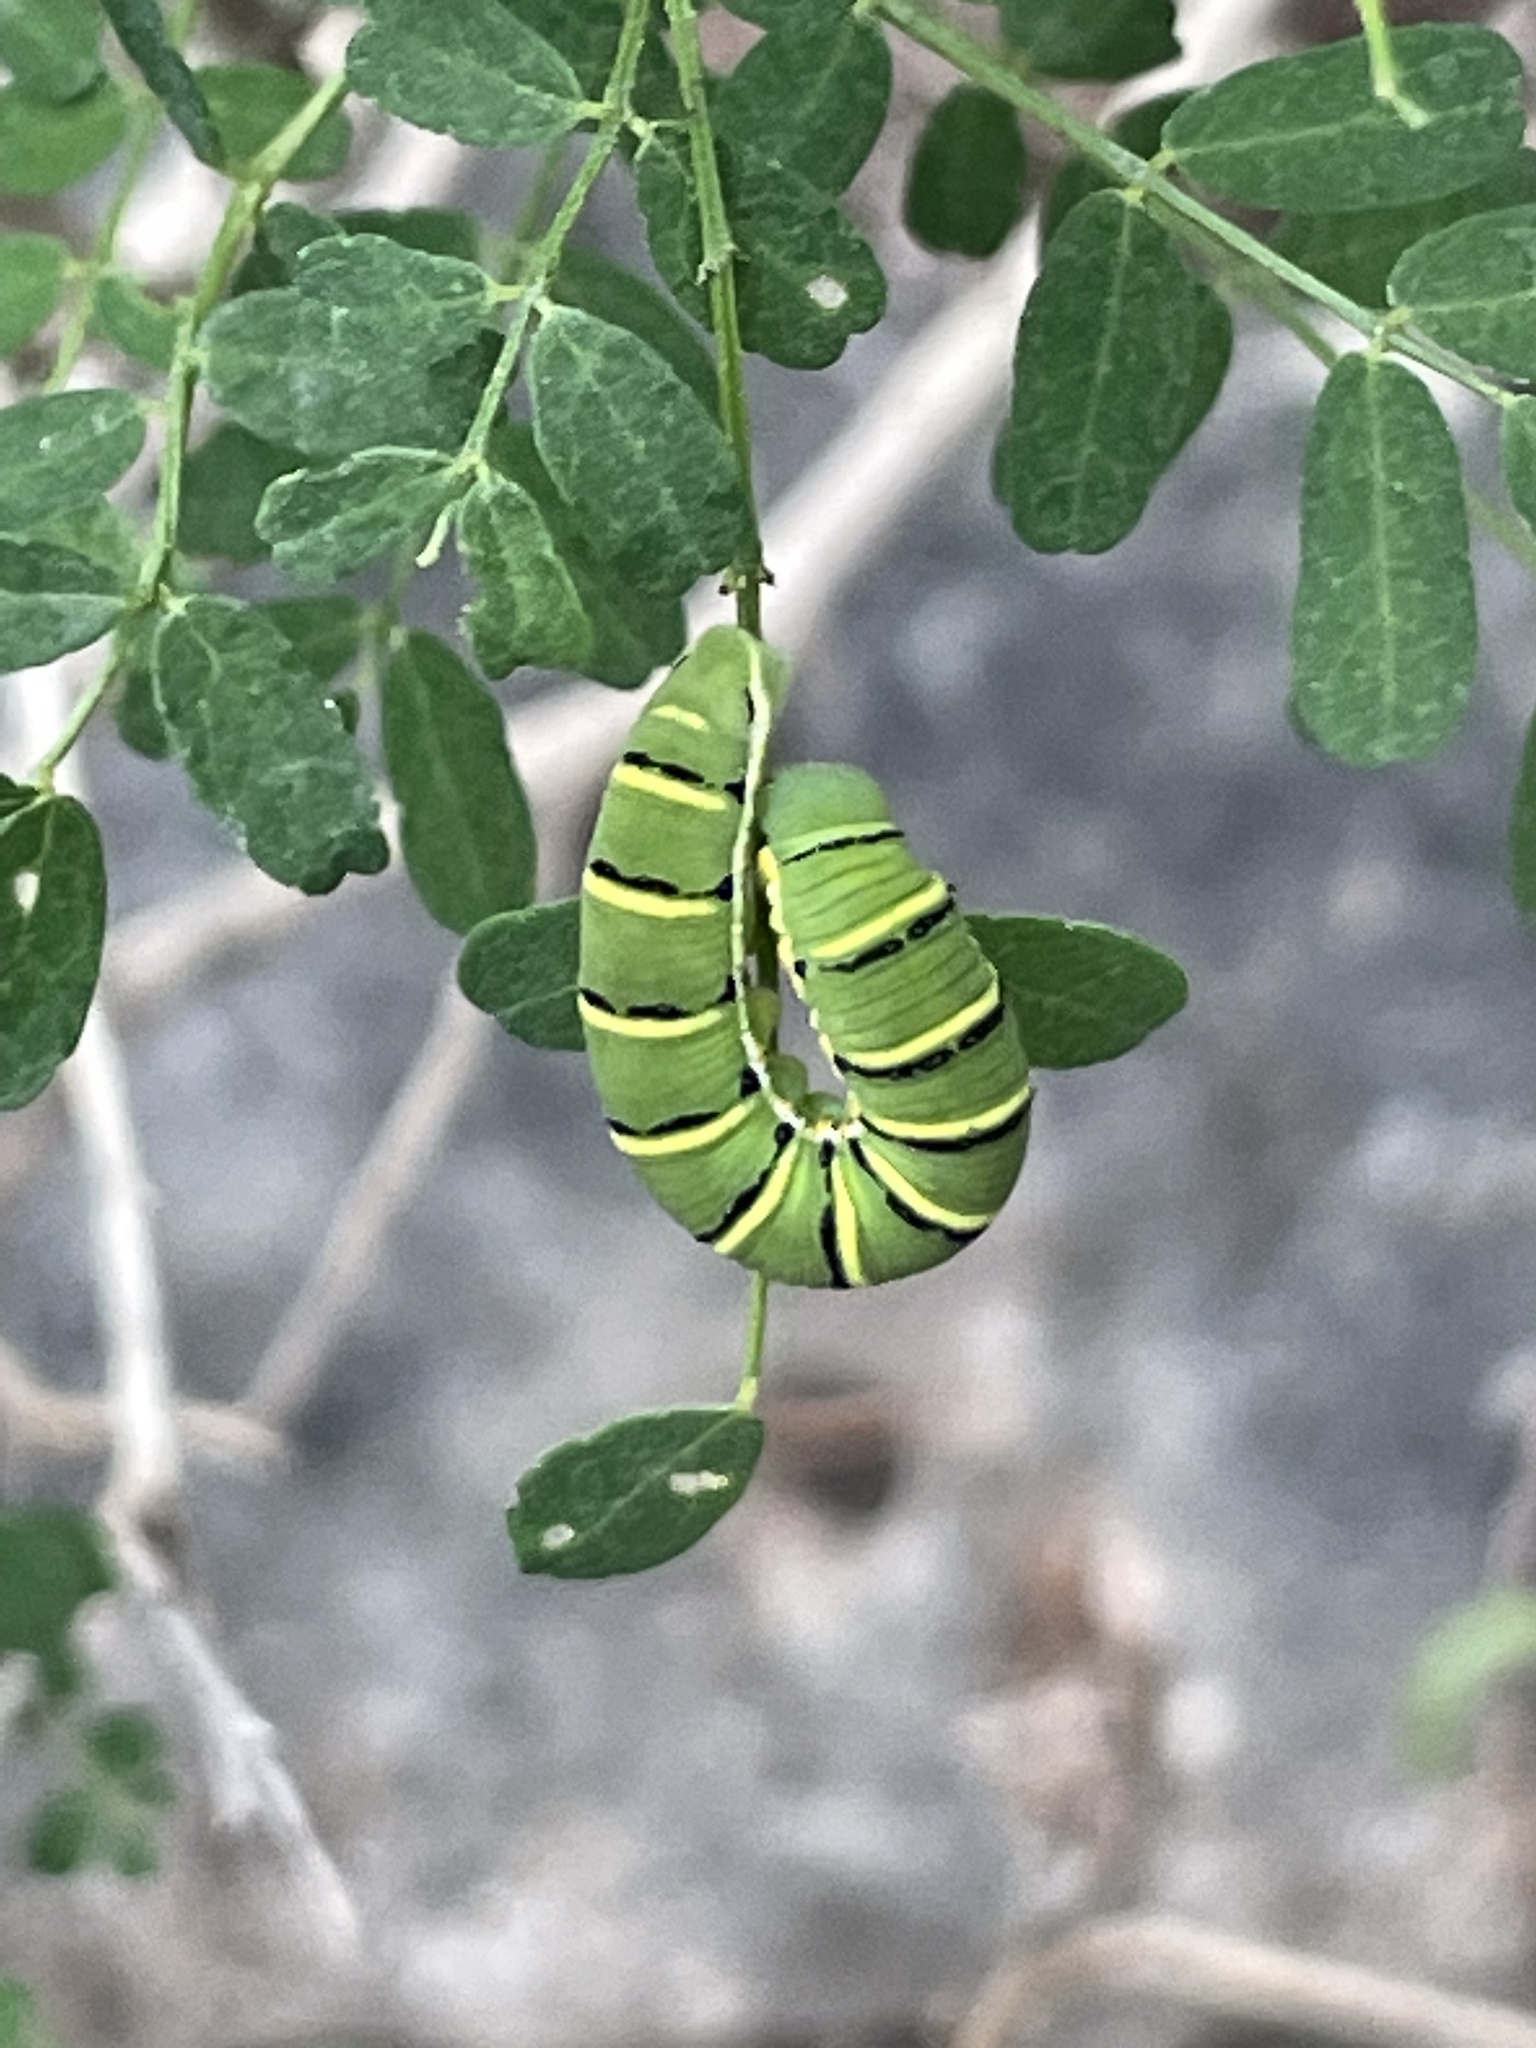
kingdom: Animalia
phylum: Arthropoda
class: Insecta
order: Lepidoptera
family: Pieridae
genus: Zerene
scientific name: Zerene cesonia
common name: Southern dogface
